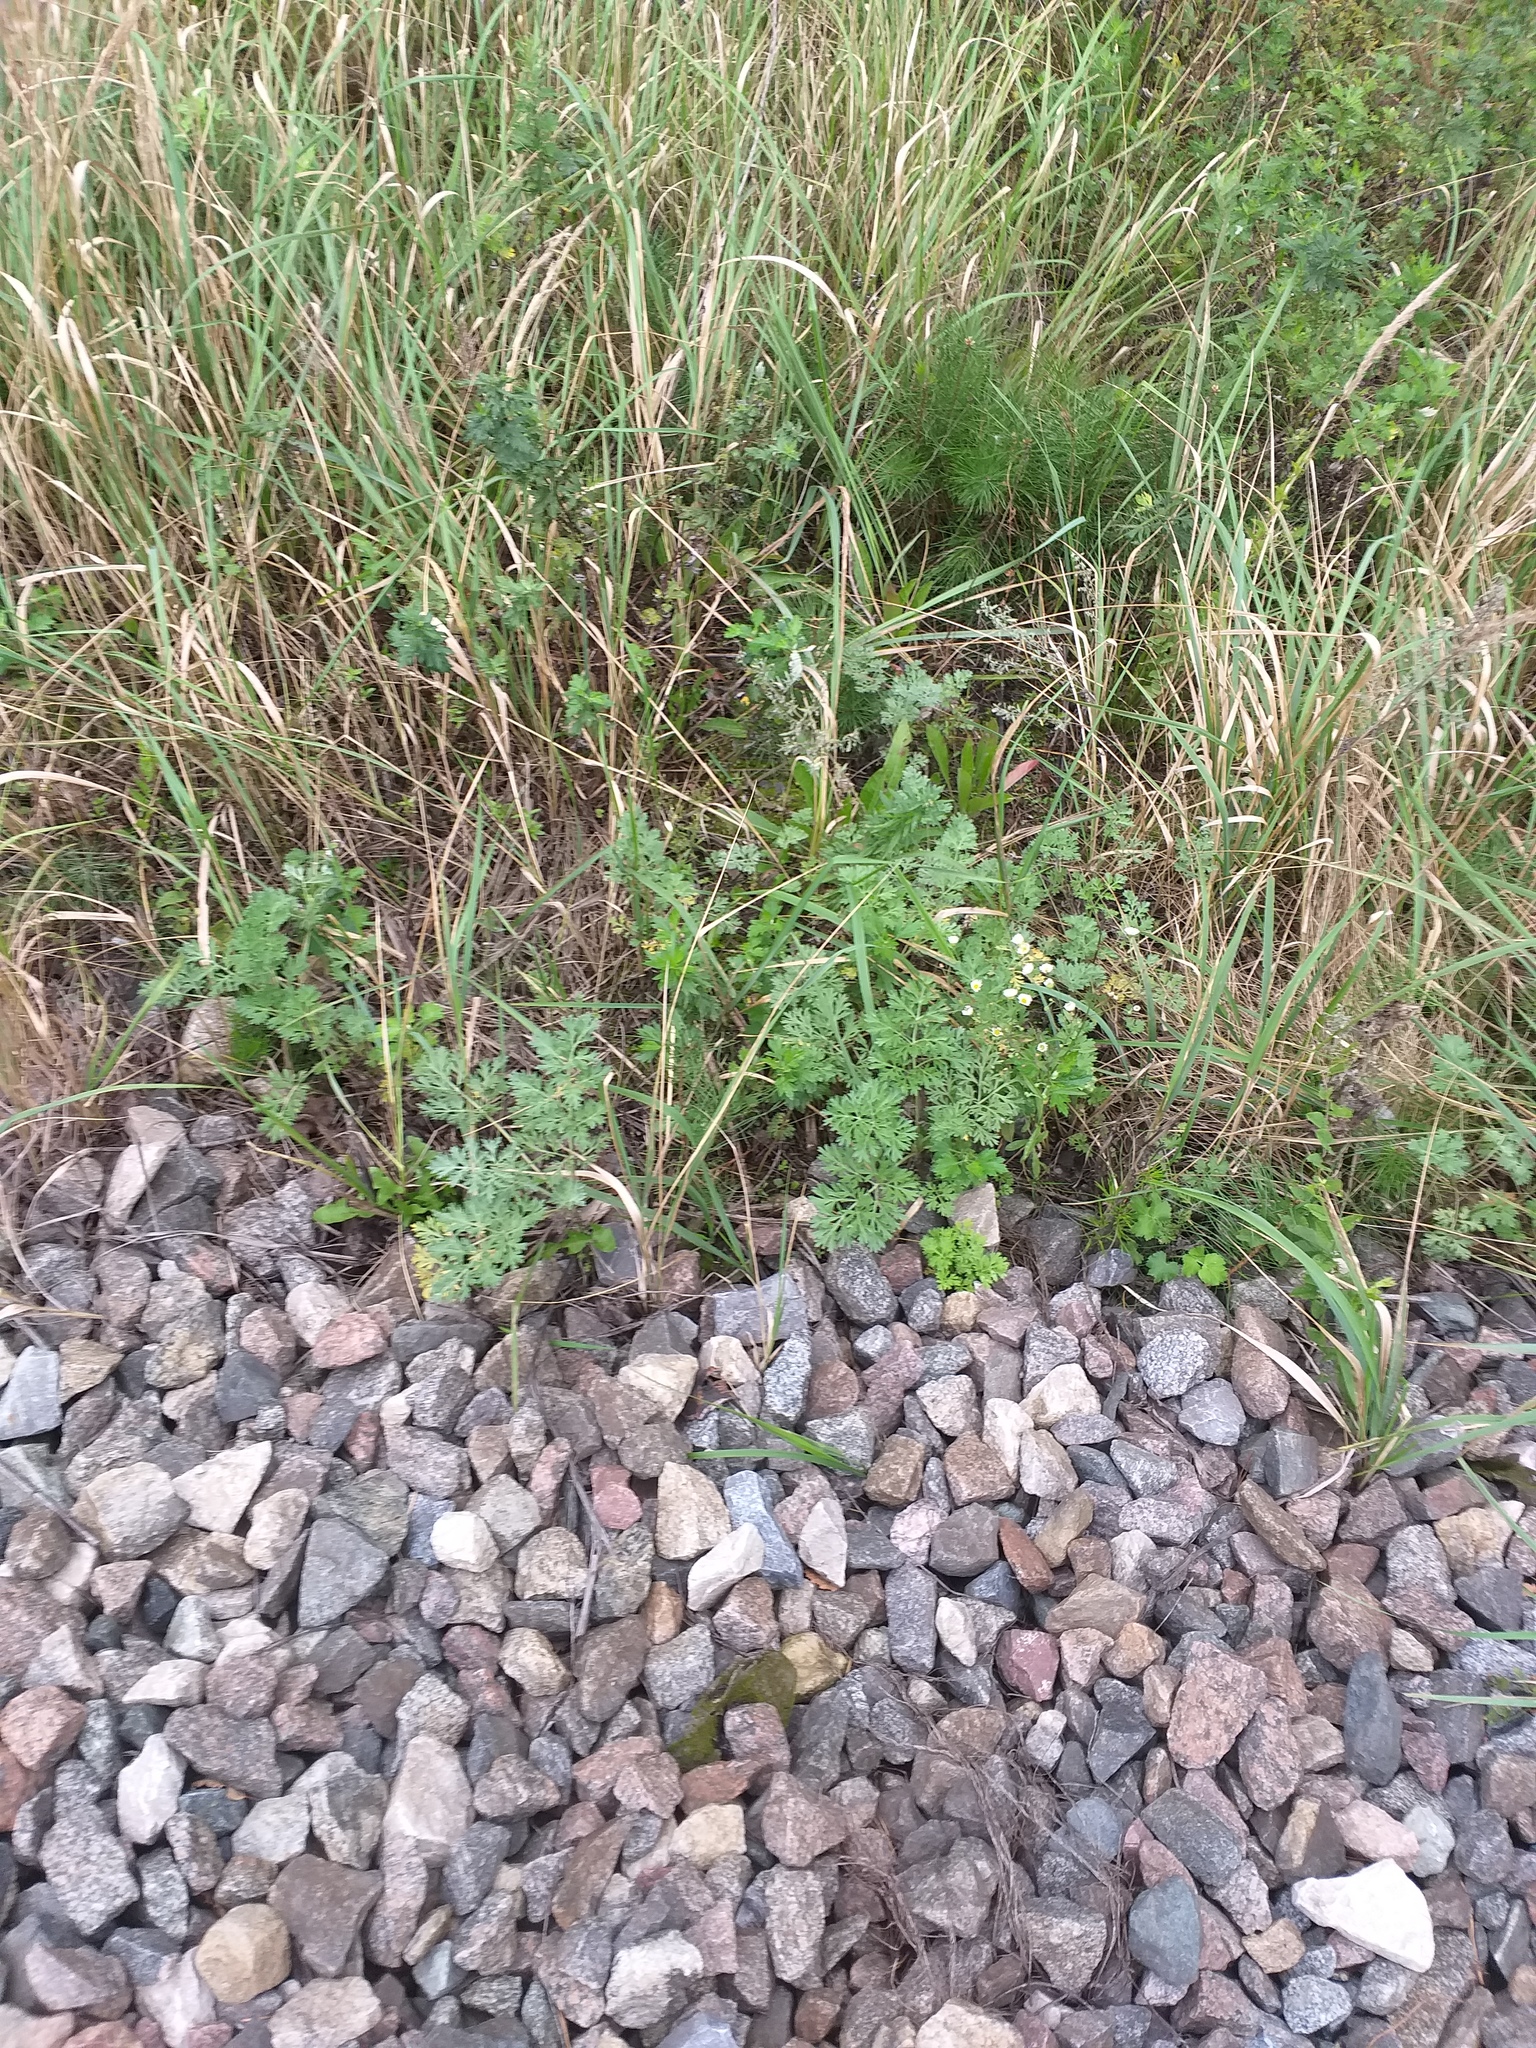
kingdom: Plantae
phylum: Tracheophyta
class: Magnoliopsida
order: Asterales
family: Asteraceae
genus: Artemisia
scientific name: Artemisia absinthium
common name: Wormwood
